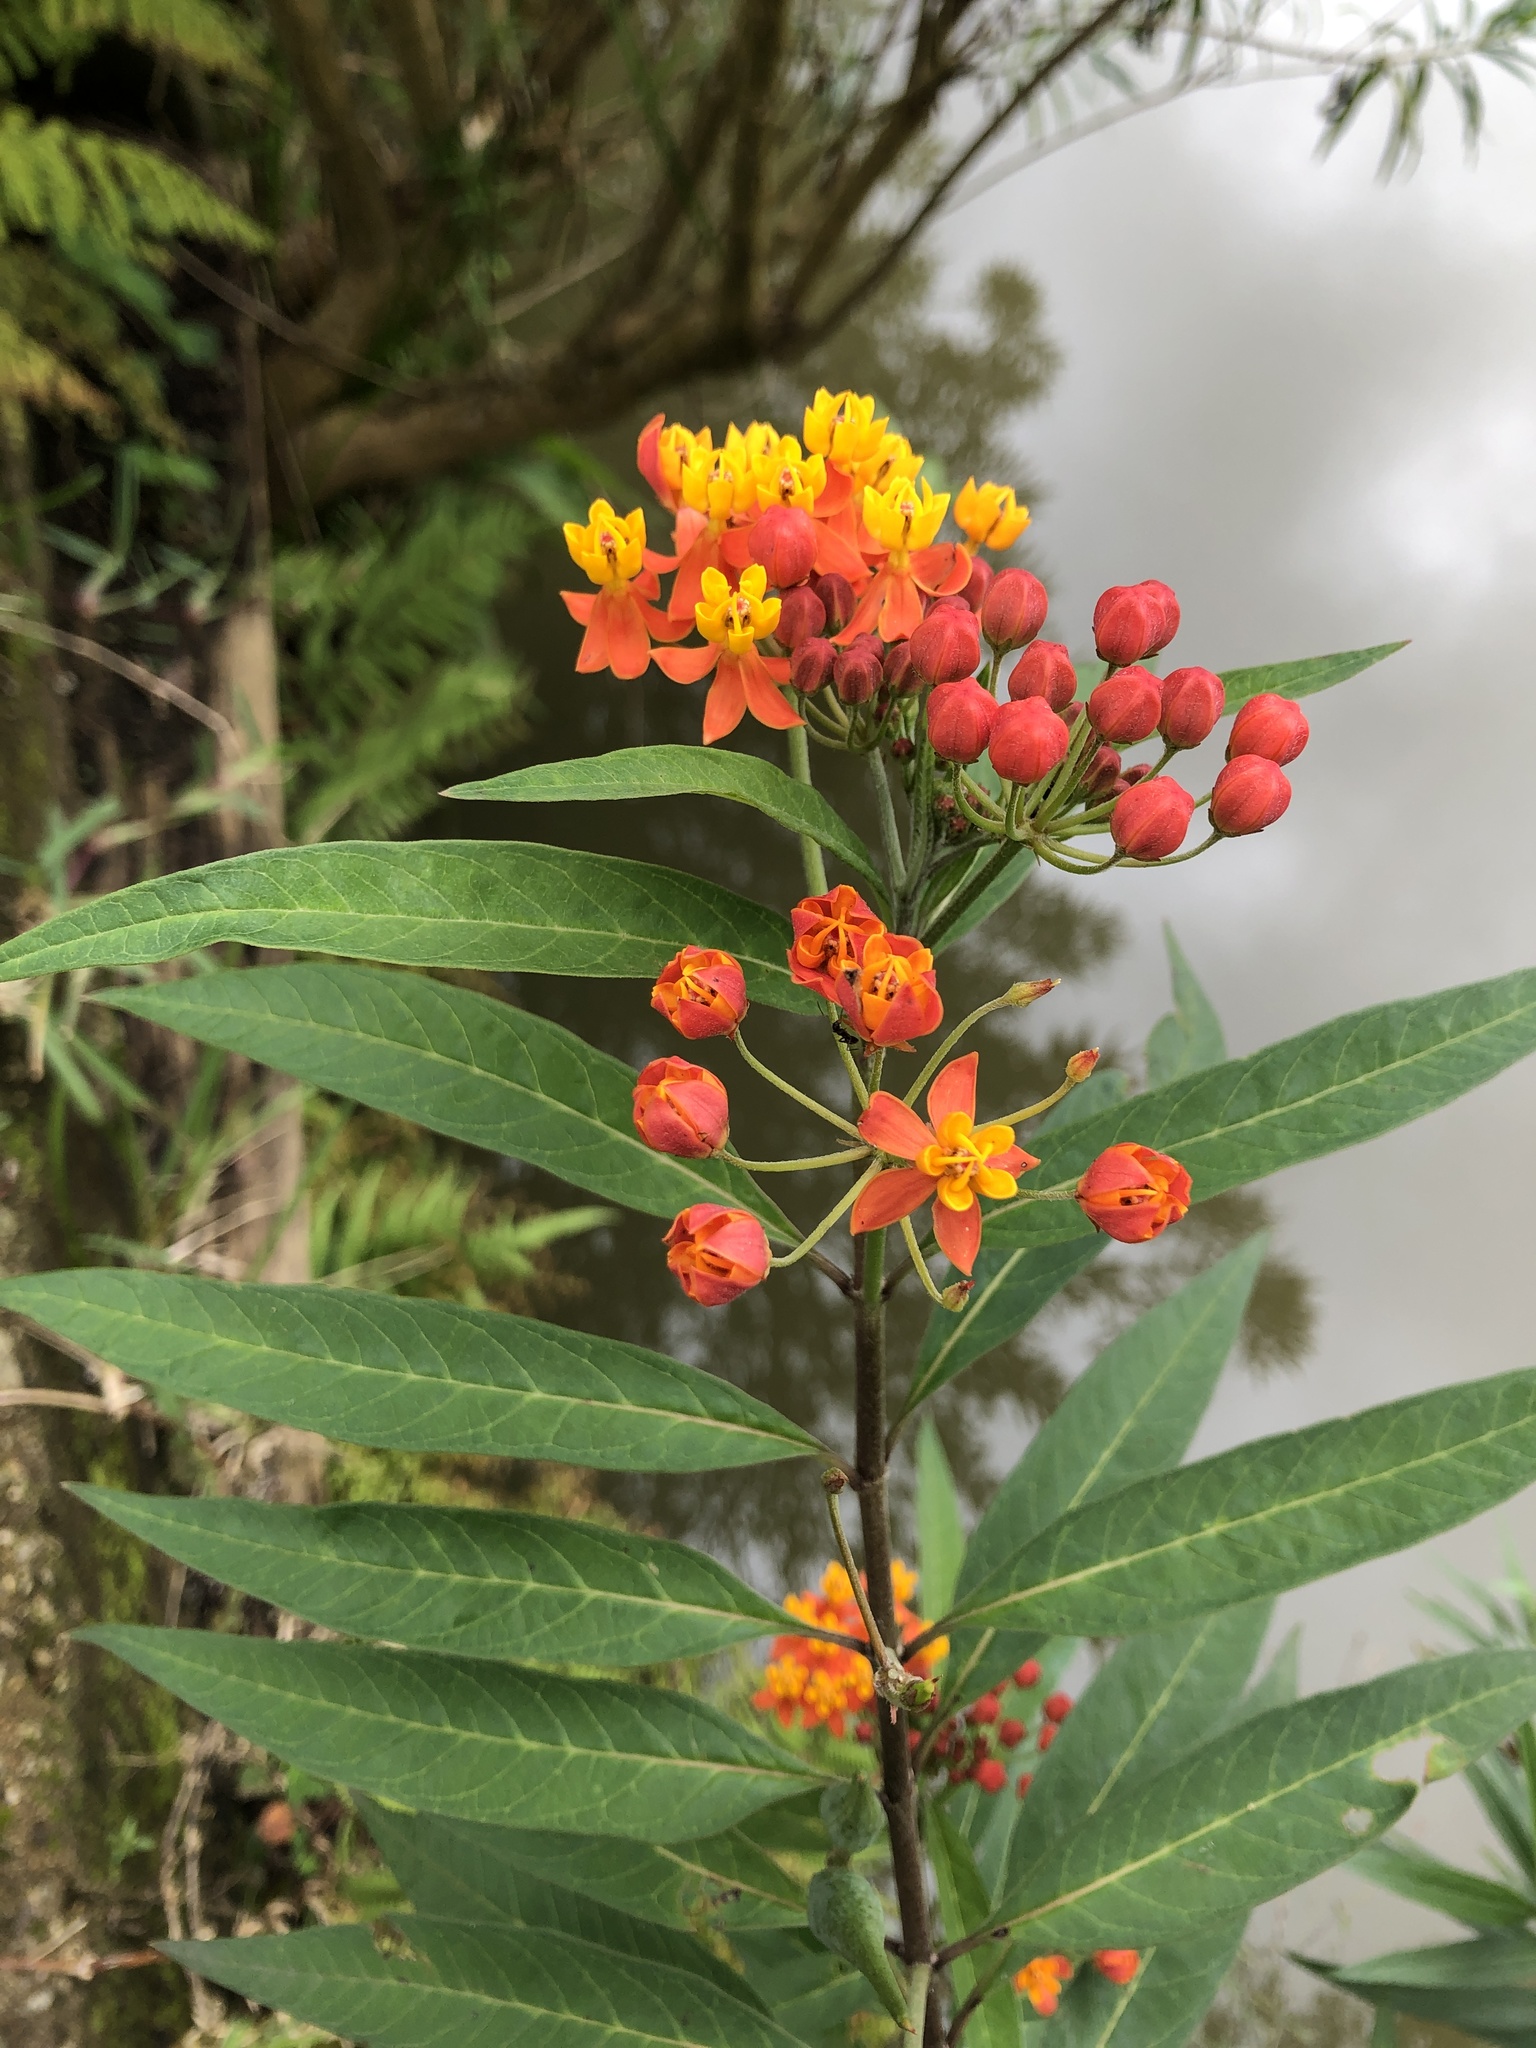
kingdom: Plantae
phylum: Tracheophyta
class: Magnoliopsida
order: Gentianales
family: Apocynaceae
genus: Asclepias
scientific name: Asclepias curassavica
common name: Bloodflower
